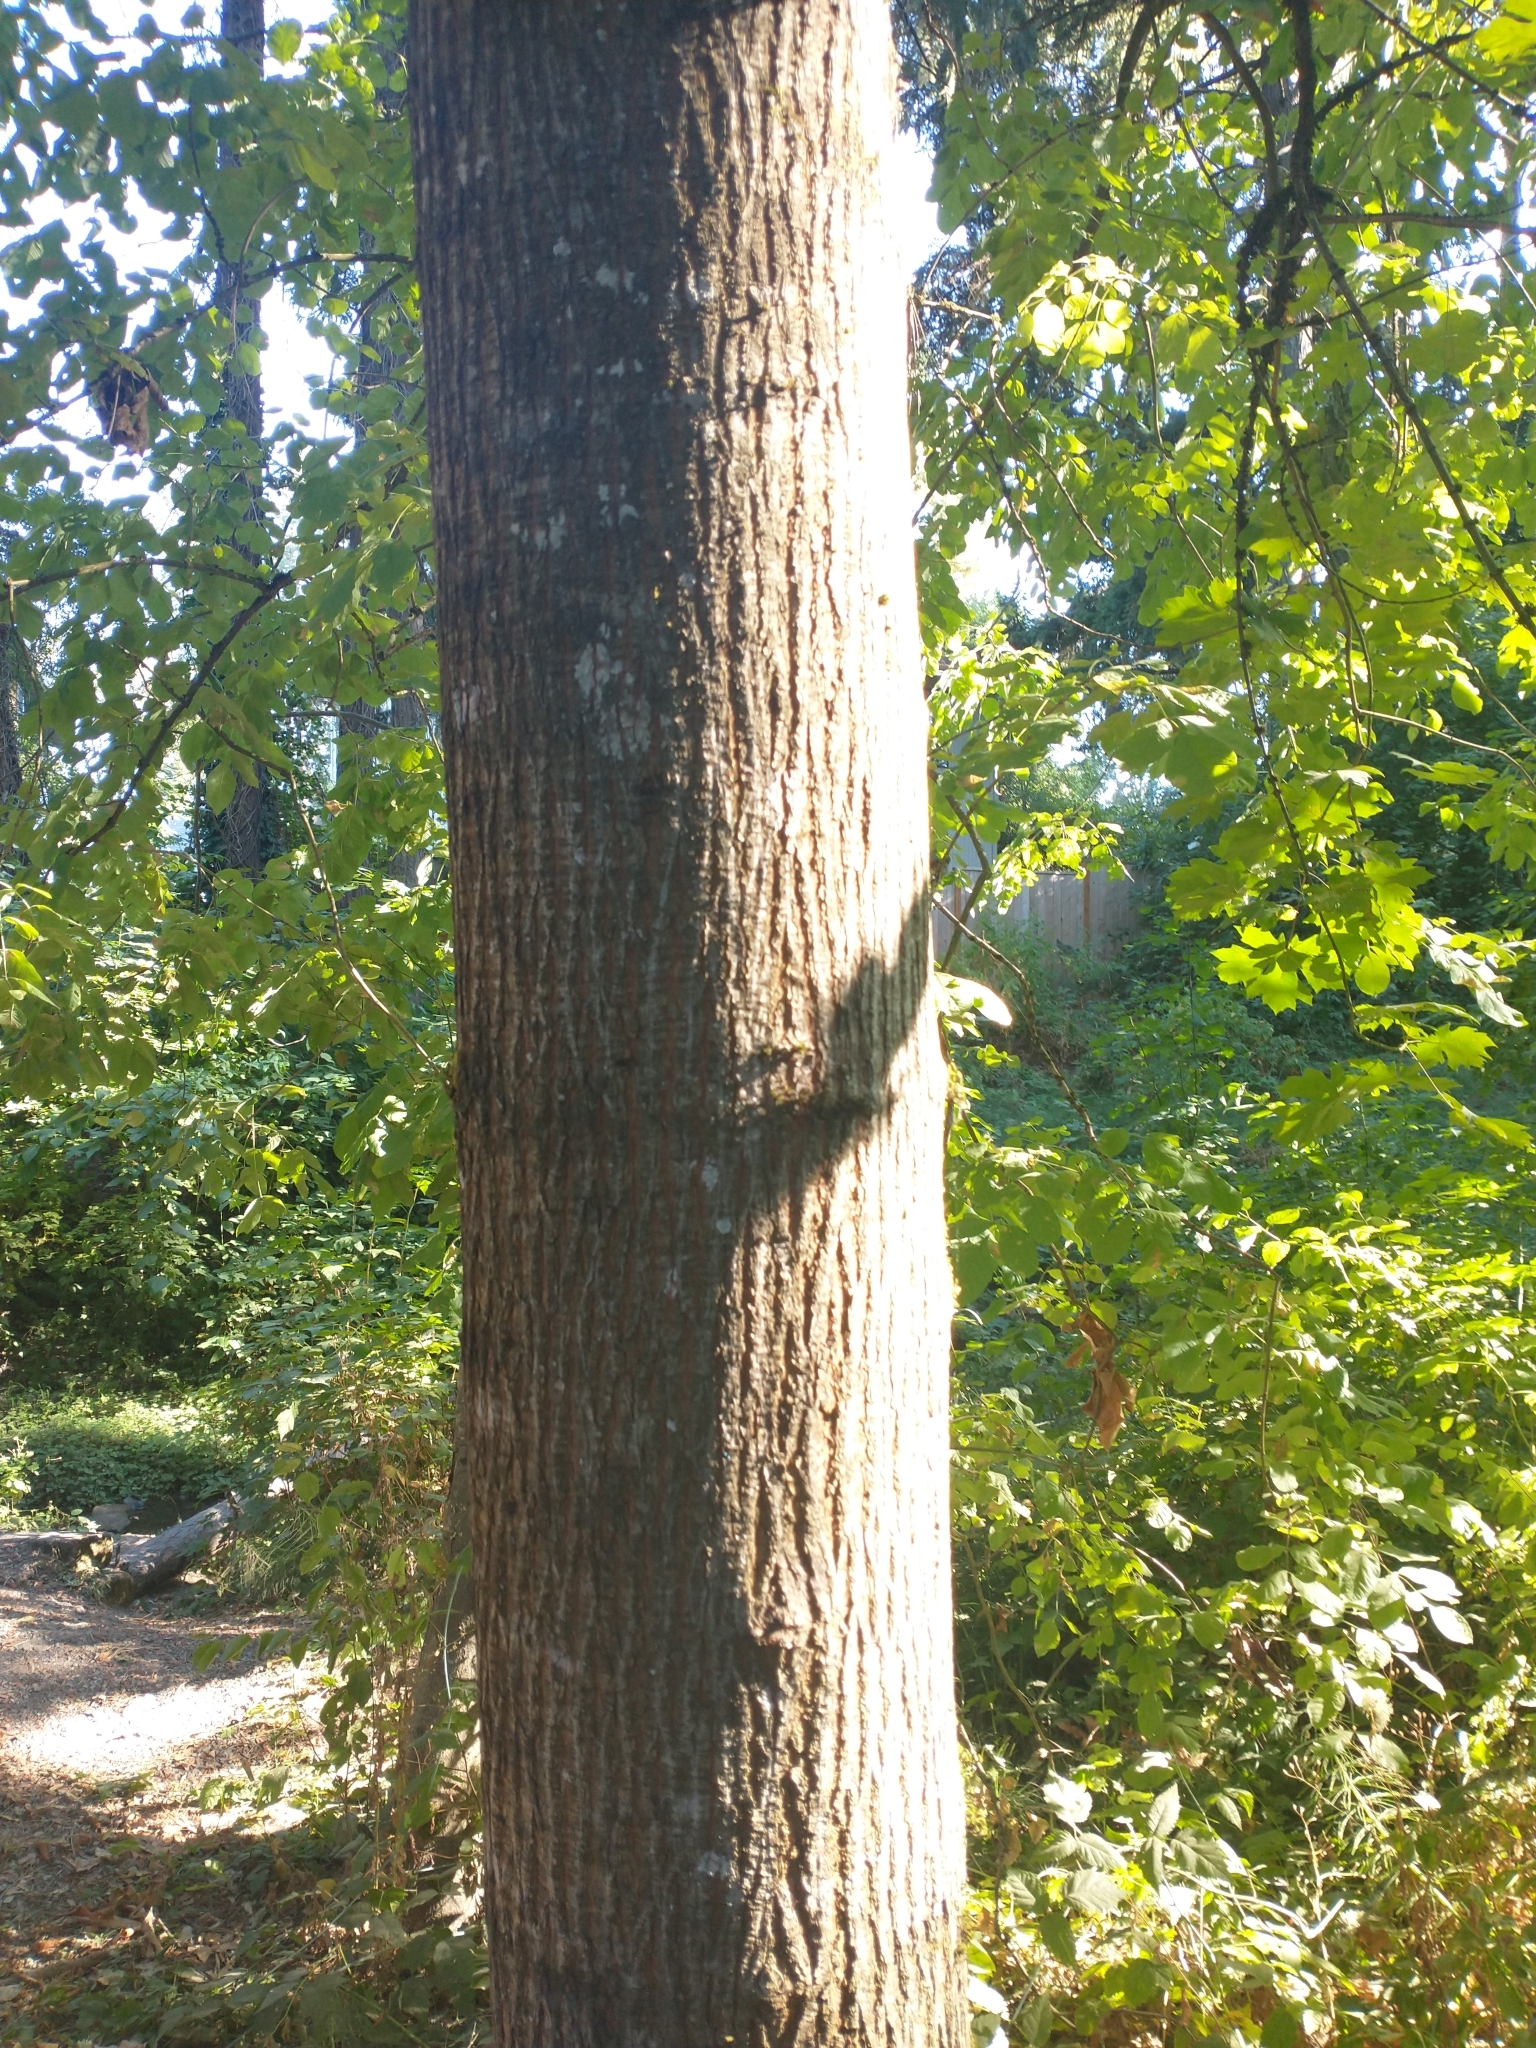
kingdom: Plantae
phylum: Tracheophyta
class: Magnoliopsida
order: Sapindales
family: Sapindaceae
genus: Acer
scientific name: Acer macrophyllum
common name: Oregon maple
